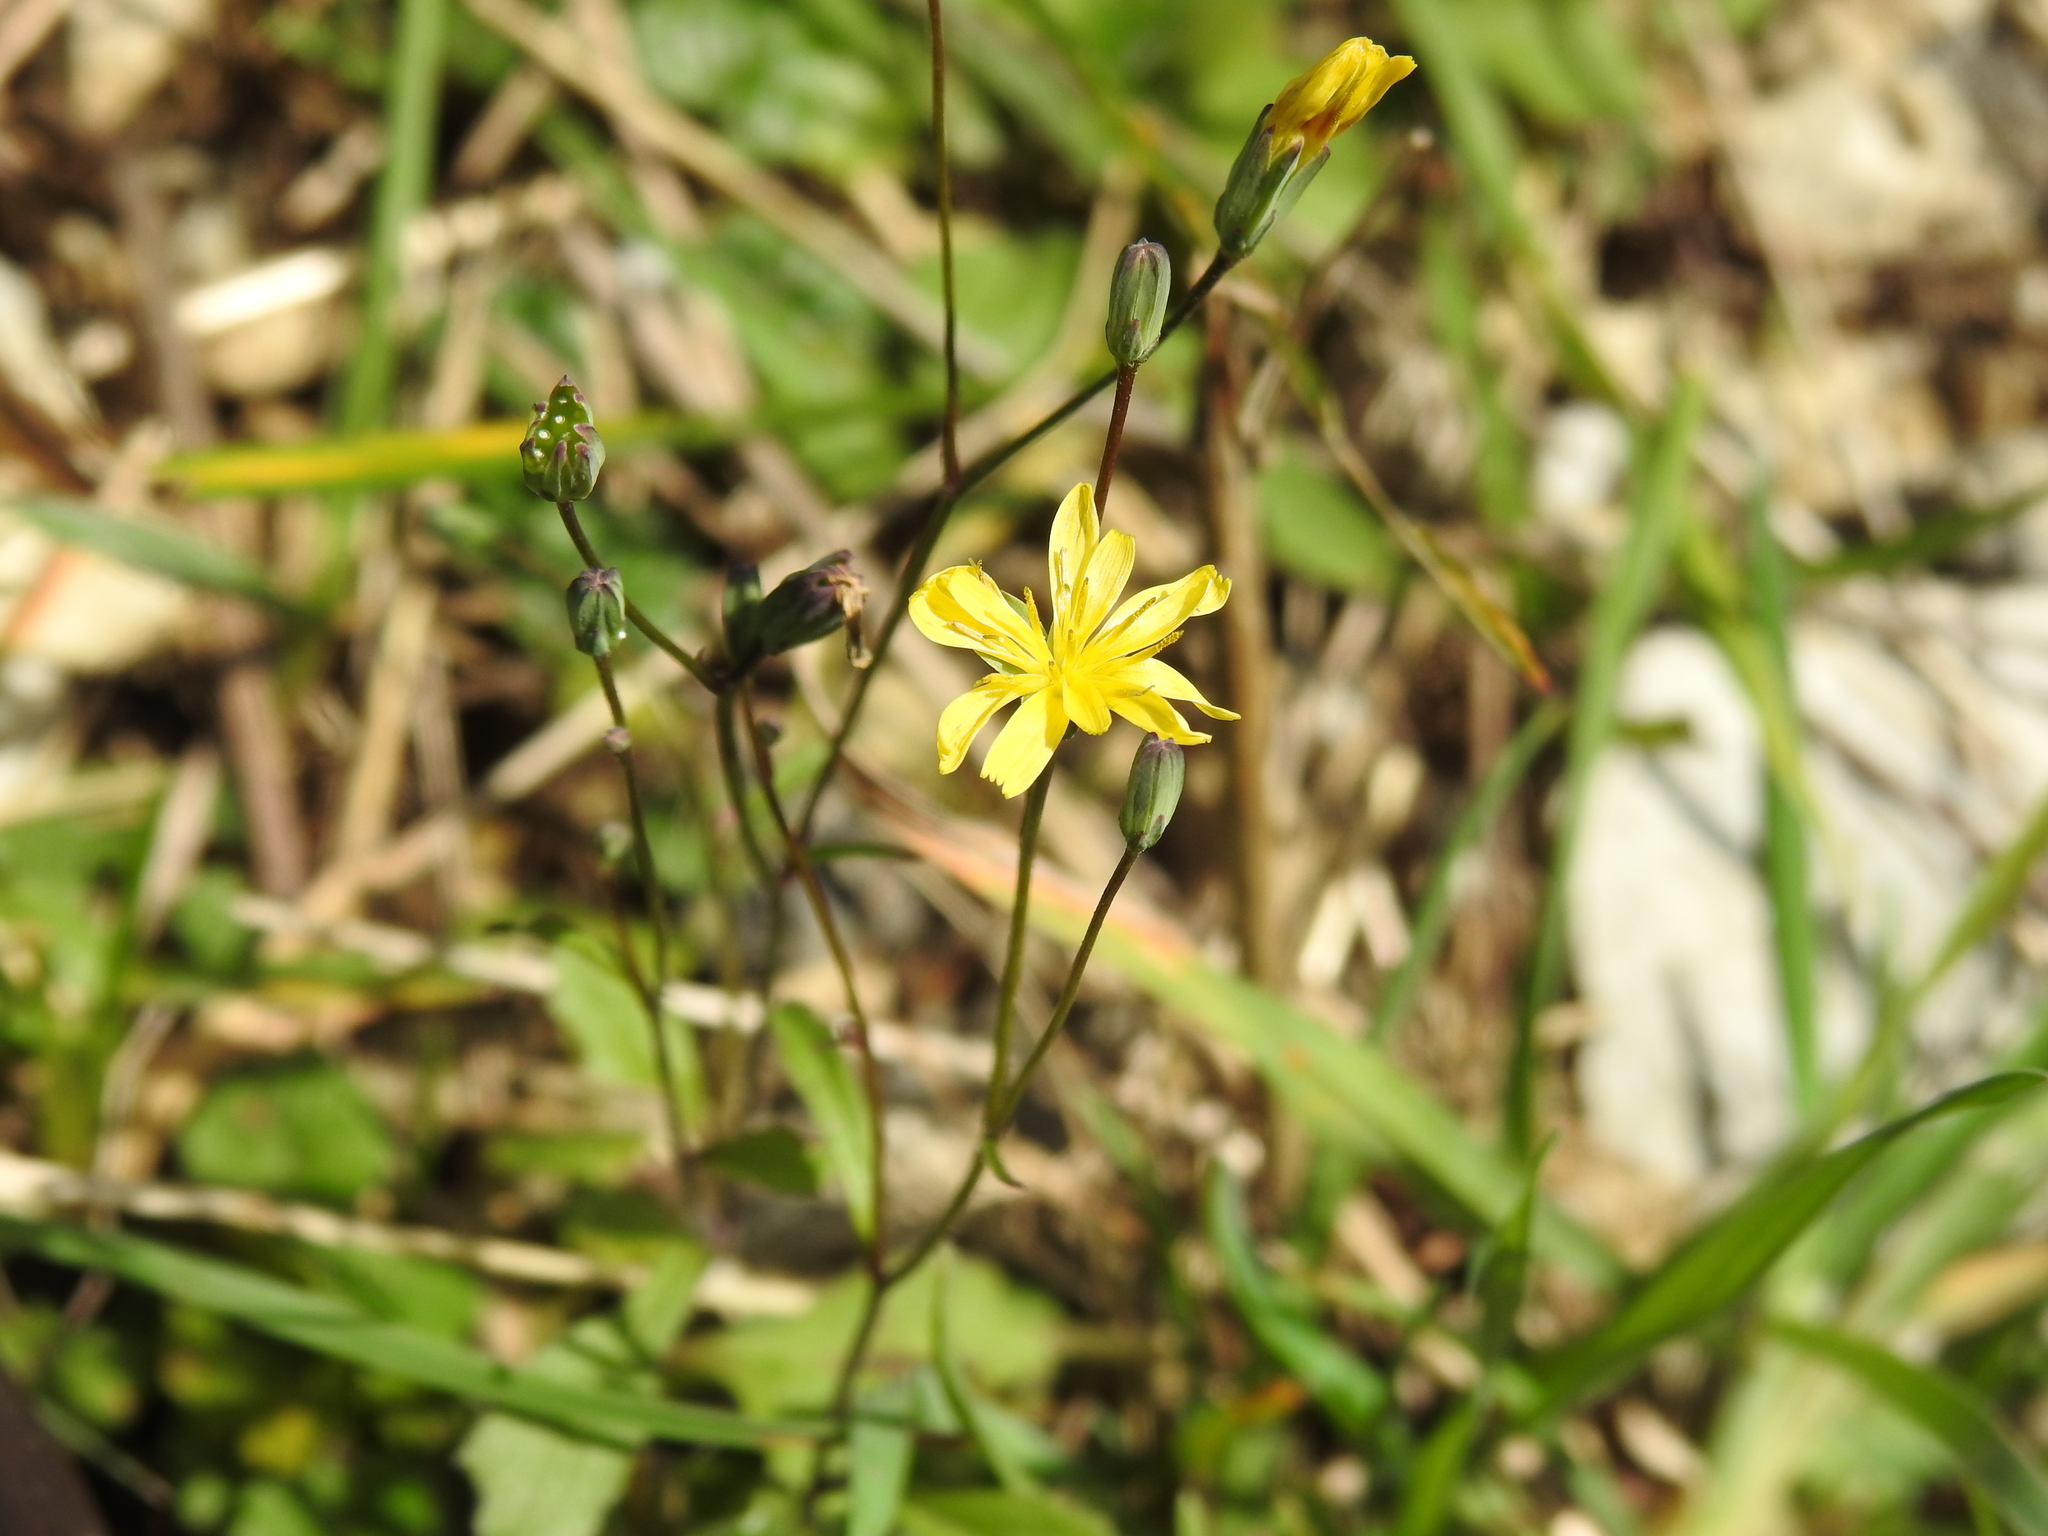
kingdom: Plantae
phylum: Tracheophyta
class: Magnoliopsida
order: Asterales
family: Asteraceae
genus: Lapsana
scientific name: Lapsana communis
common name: Nipplewort
